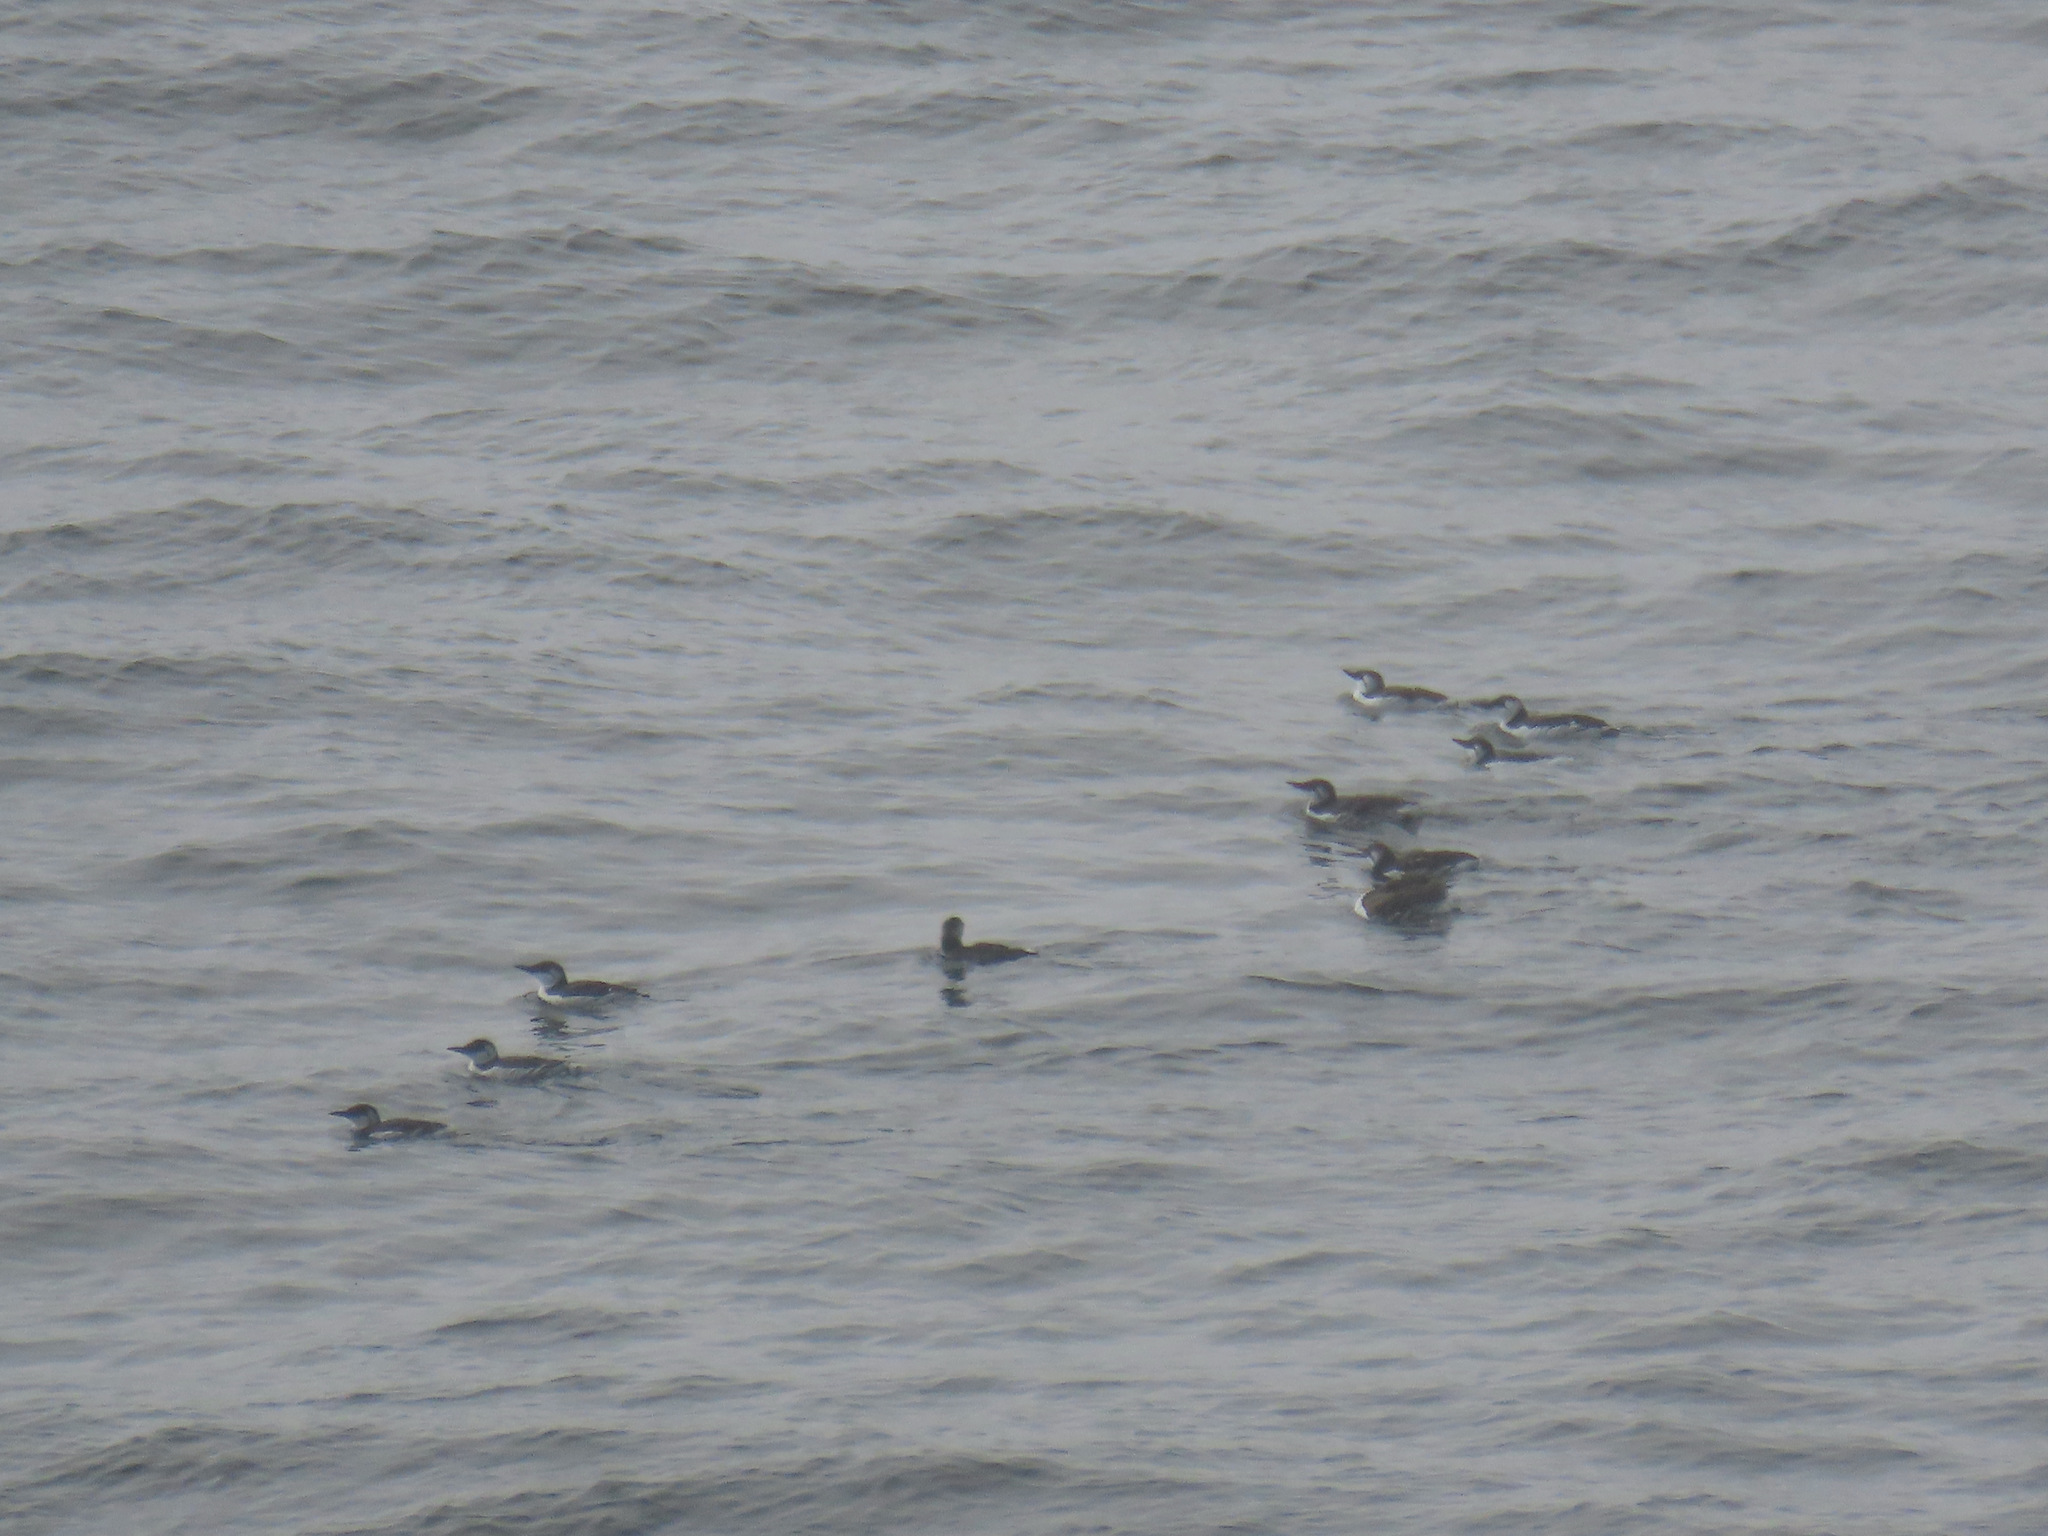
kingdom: Animalia
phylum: Chordata
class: Aves
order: Charadriiformes
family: Alcidae
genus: Uria
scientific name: Uria aalge
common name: Common murre
